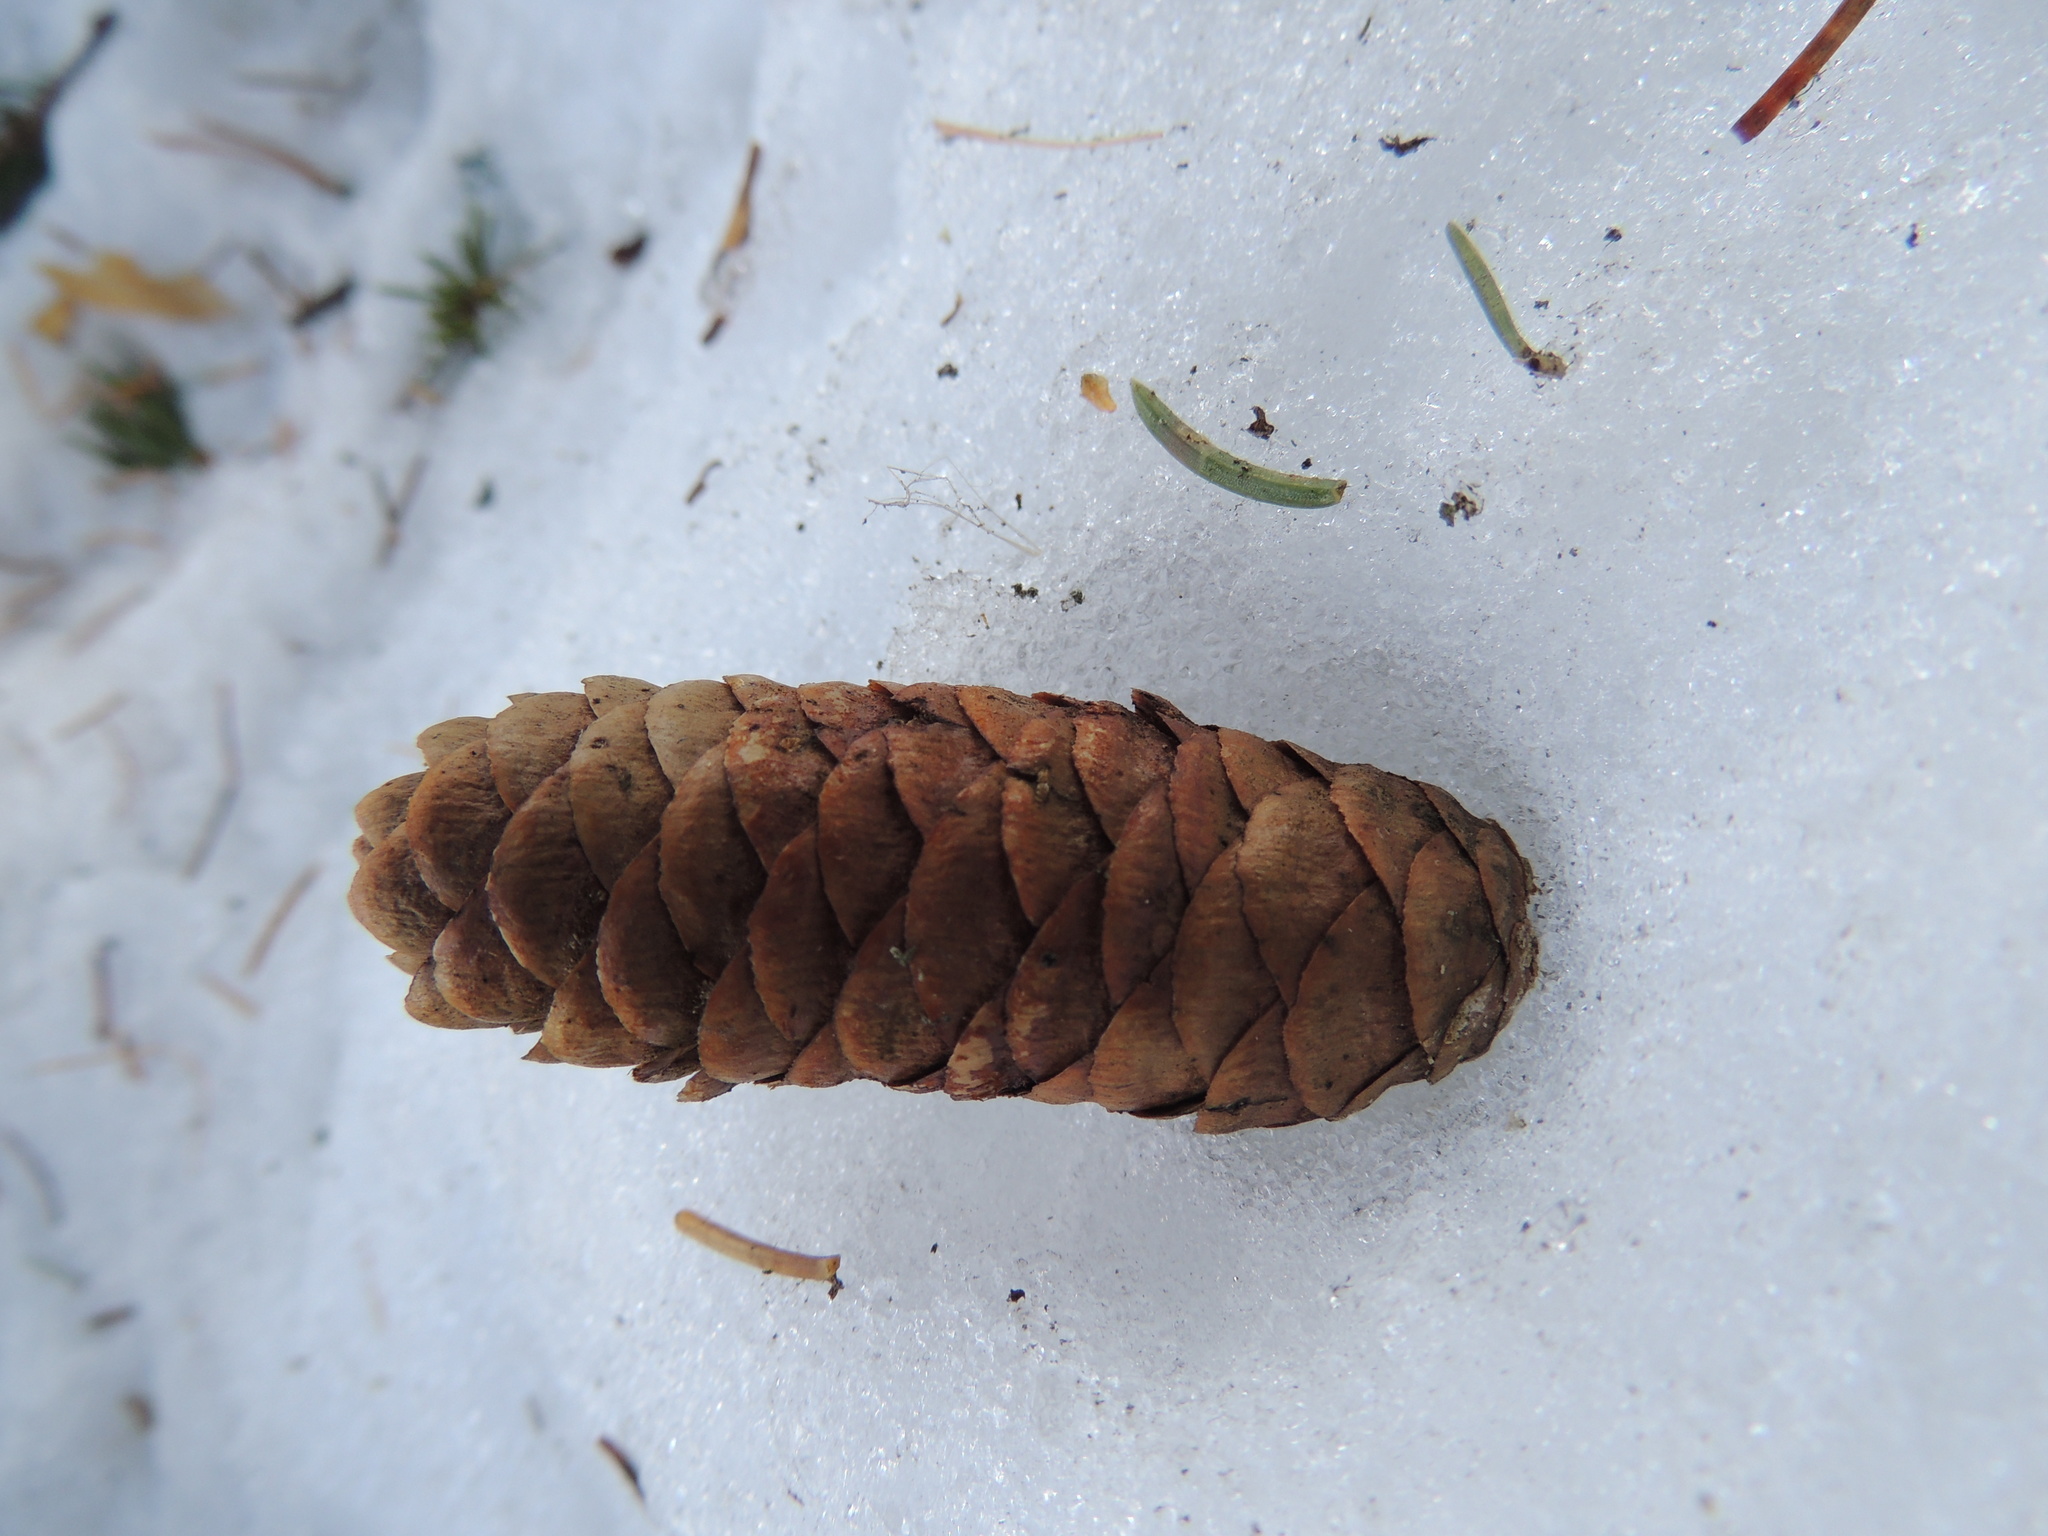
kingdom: Plantae
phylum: Tracheophyta
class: Pinopsida
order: Pinales
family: Pinaceae
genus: Picea
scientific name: Picea obovata
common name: Siberian spruce
